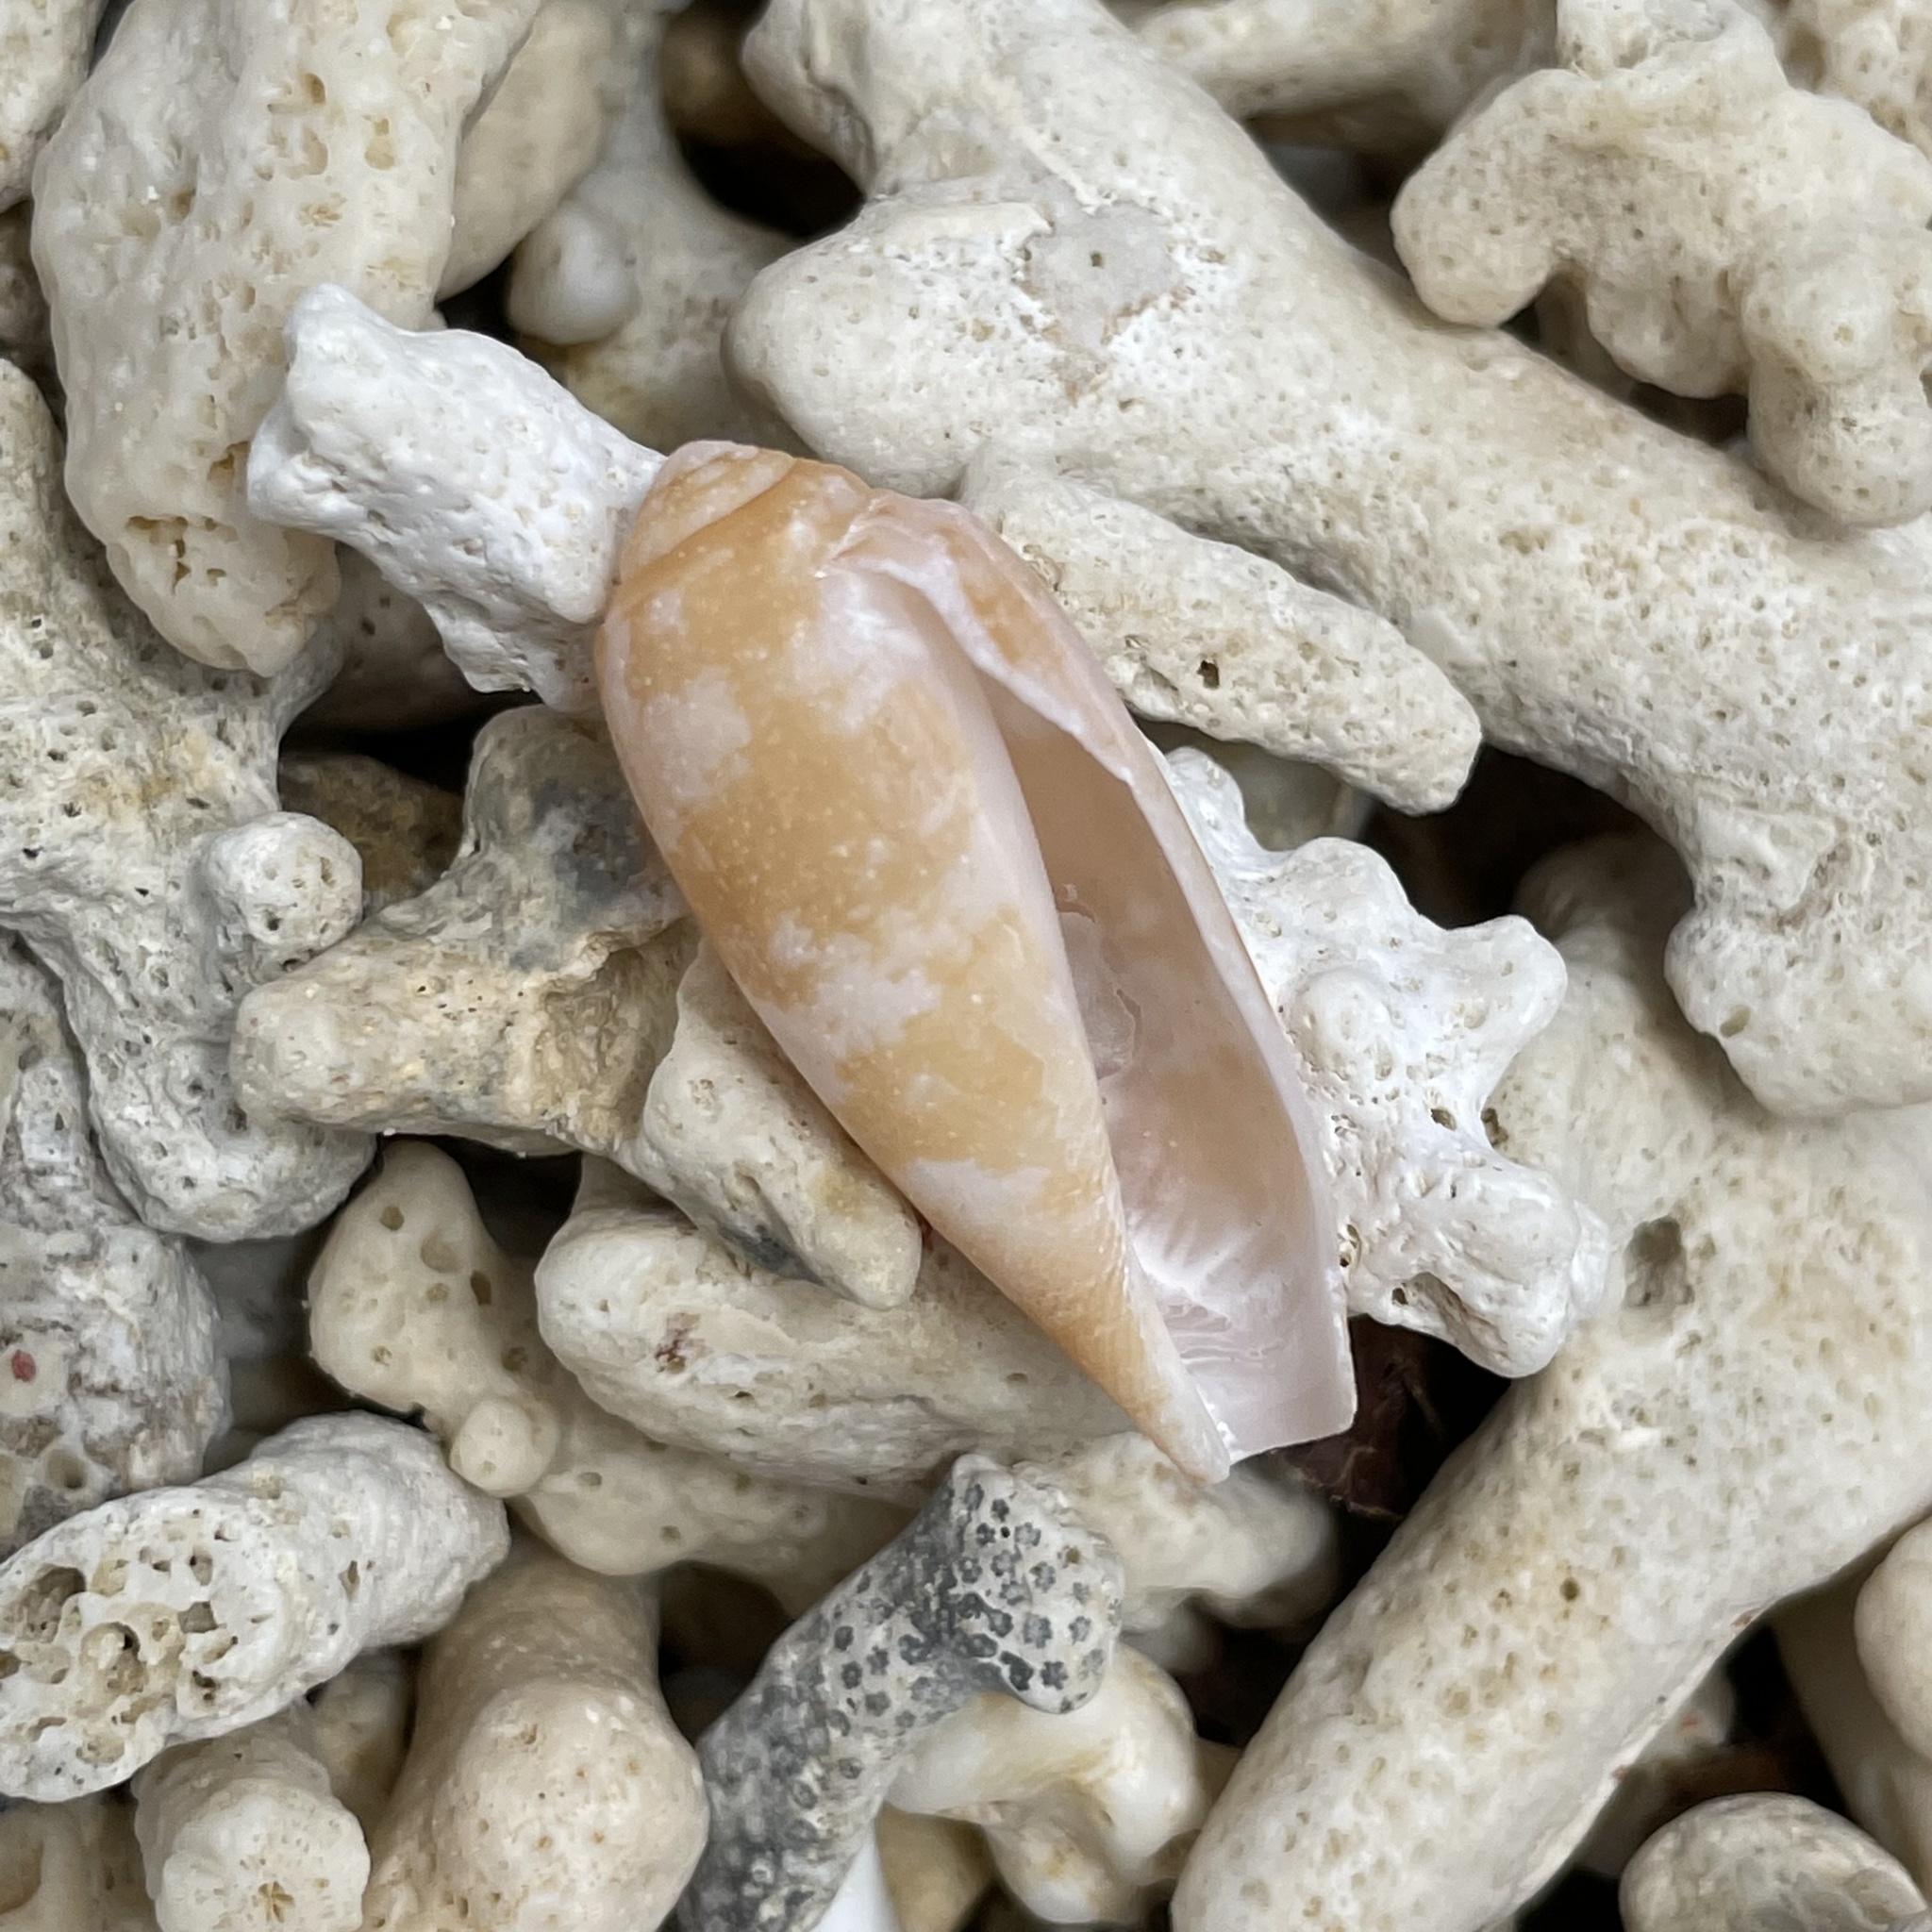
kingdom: Animalia
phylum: Mollusca
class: Gastropoda
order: Neogastropoda
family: Conidae
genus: Conus
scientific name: Conus obscurus
